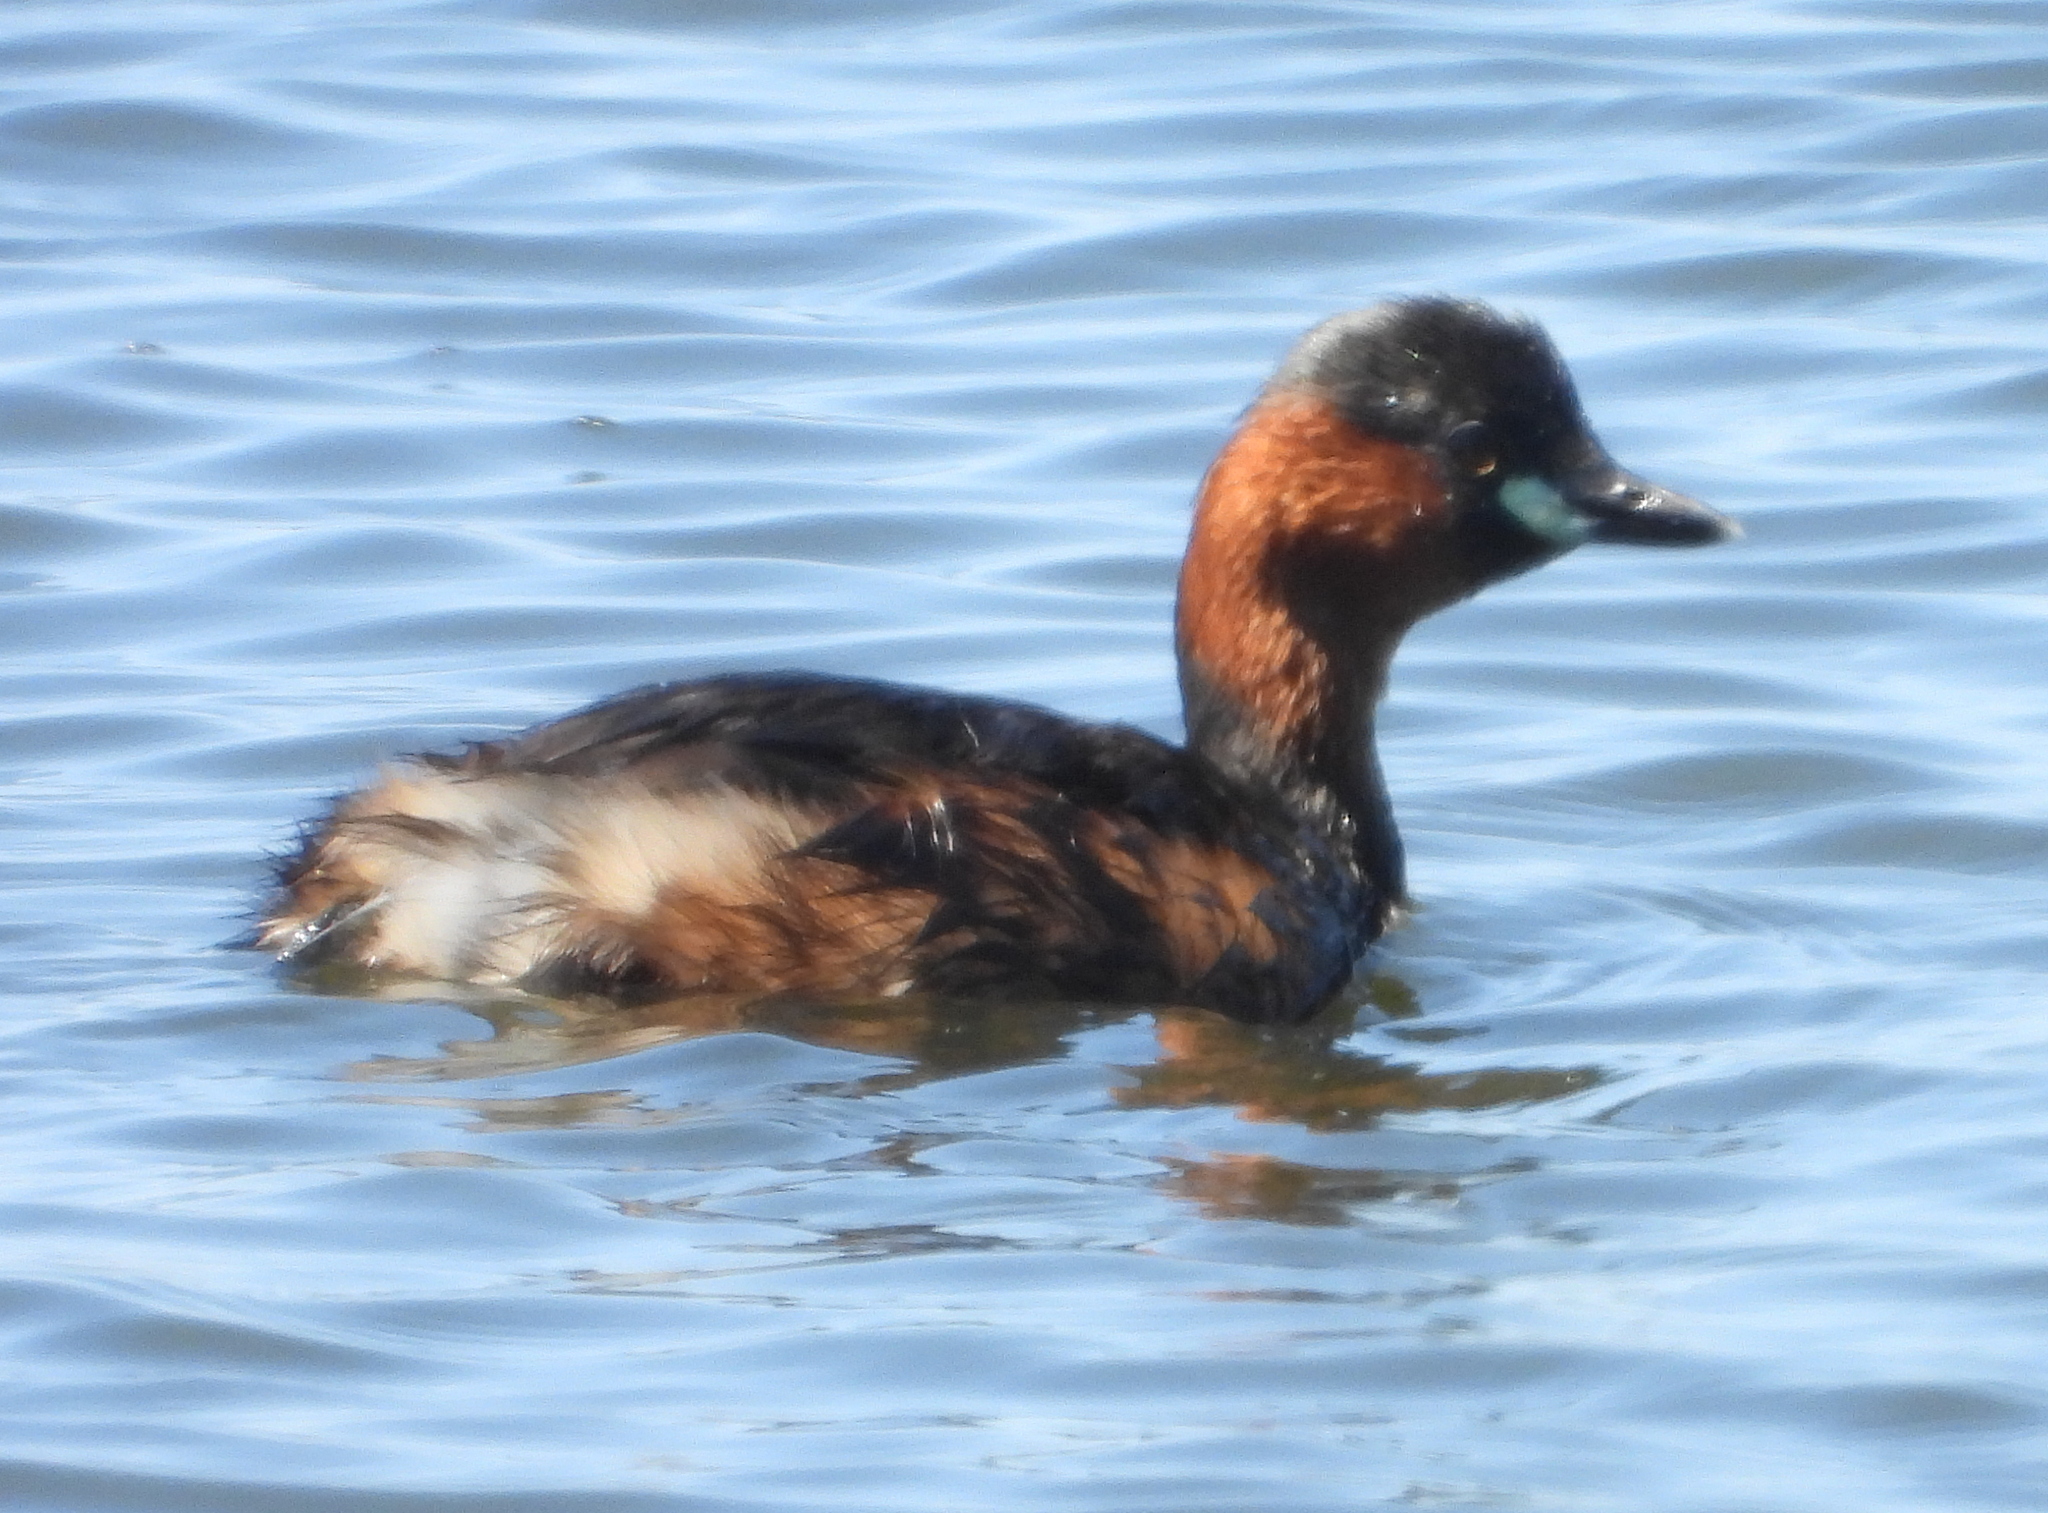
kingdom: Animalia
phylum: Chordata
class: Aves
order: Podicipediformes
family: Podicipedidae
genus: Tachybaptus
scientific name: Tachybaptus ruficollis
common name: Little grebe
